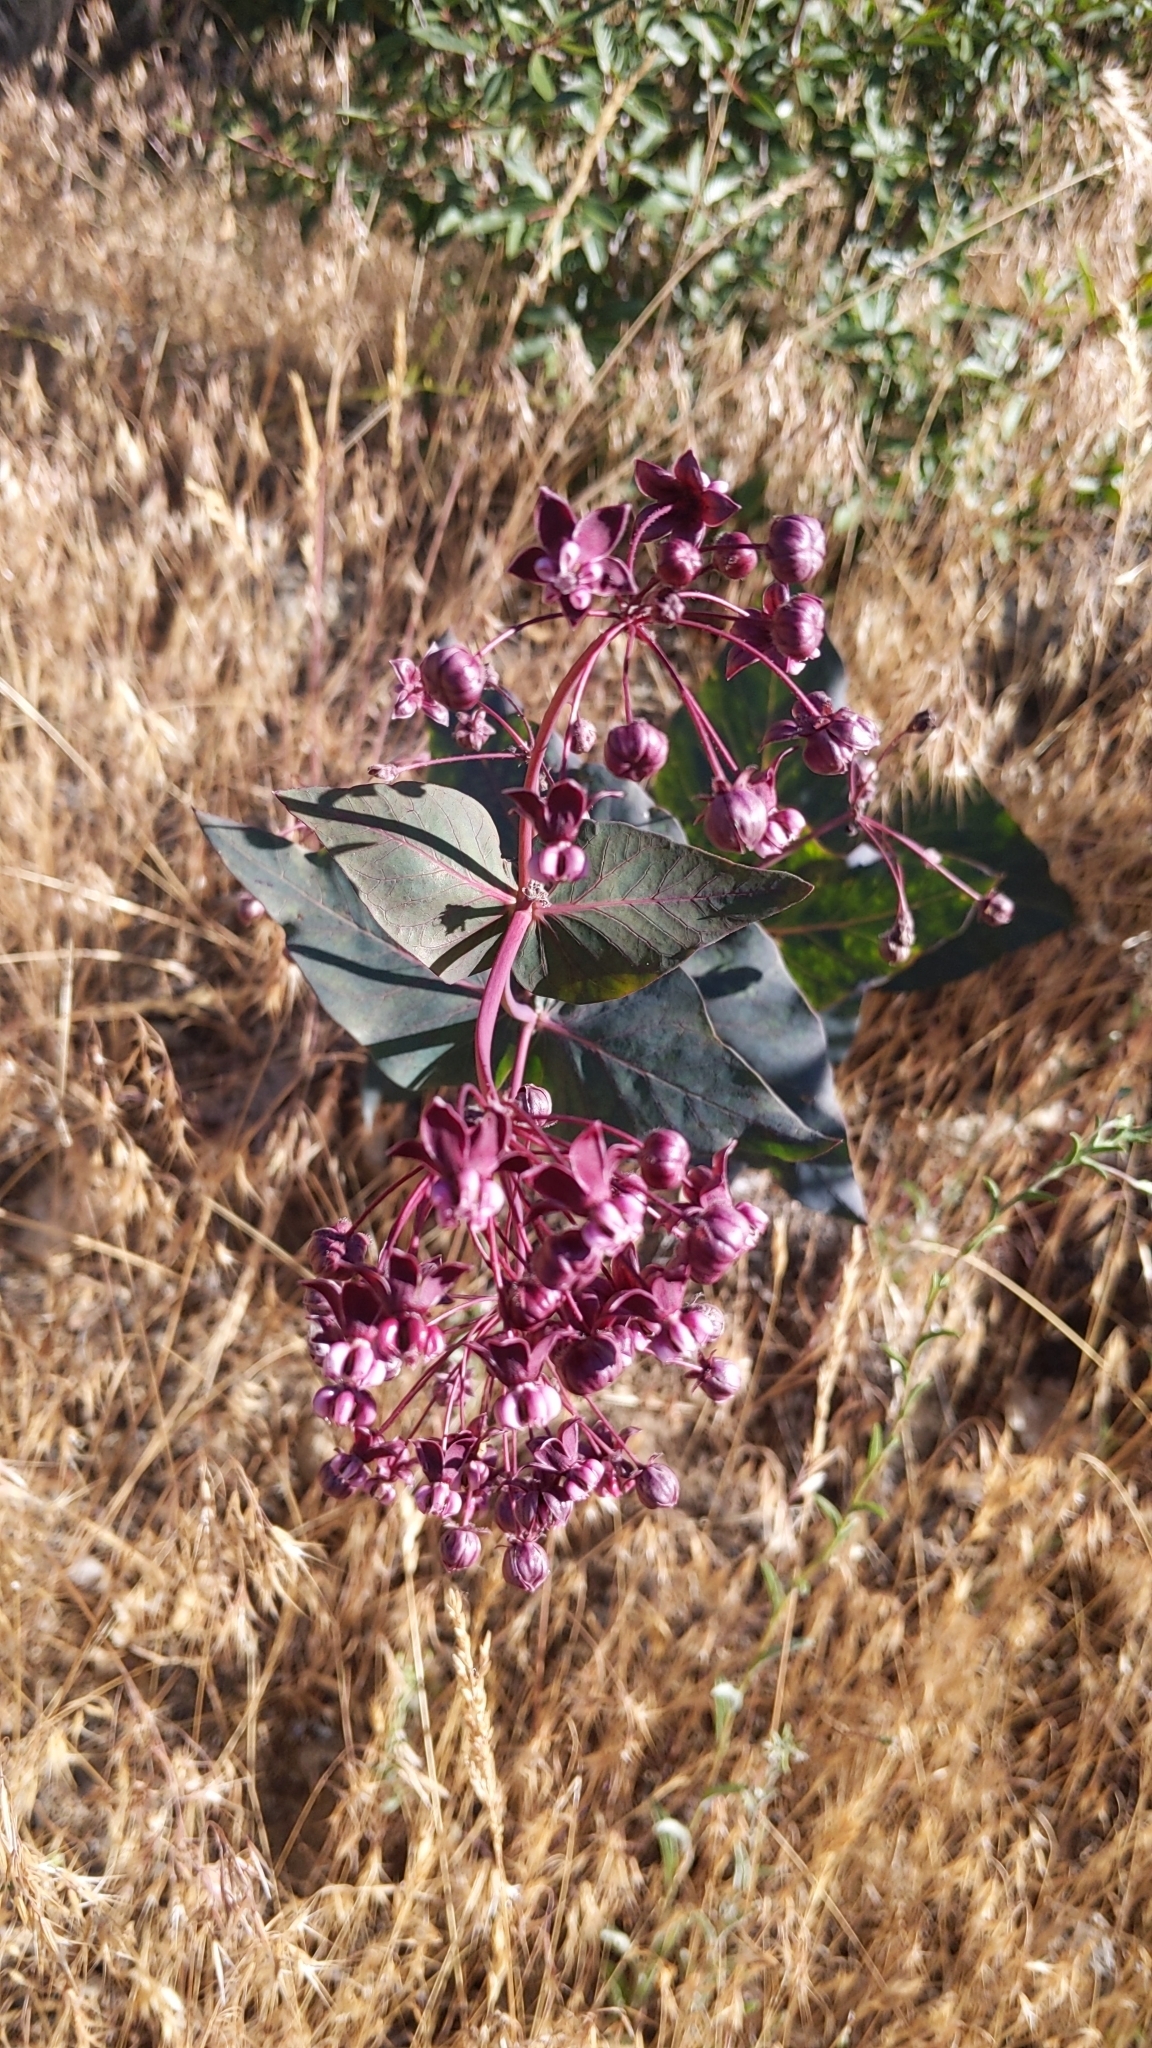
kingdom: Plantae
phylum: Tracheophyta
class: Magnoliopsida
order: Gentianales
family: Apocynaceae
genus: Asclepias
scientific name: Asclepias cordifolia
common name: Purple milkweed
